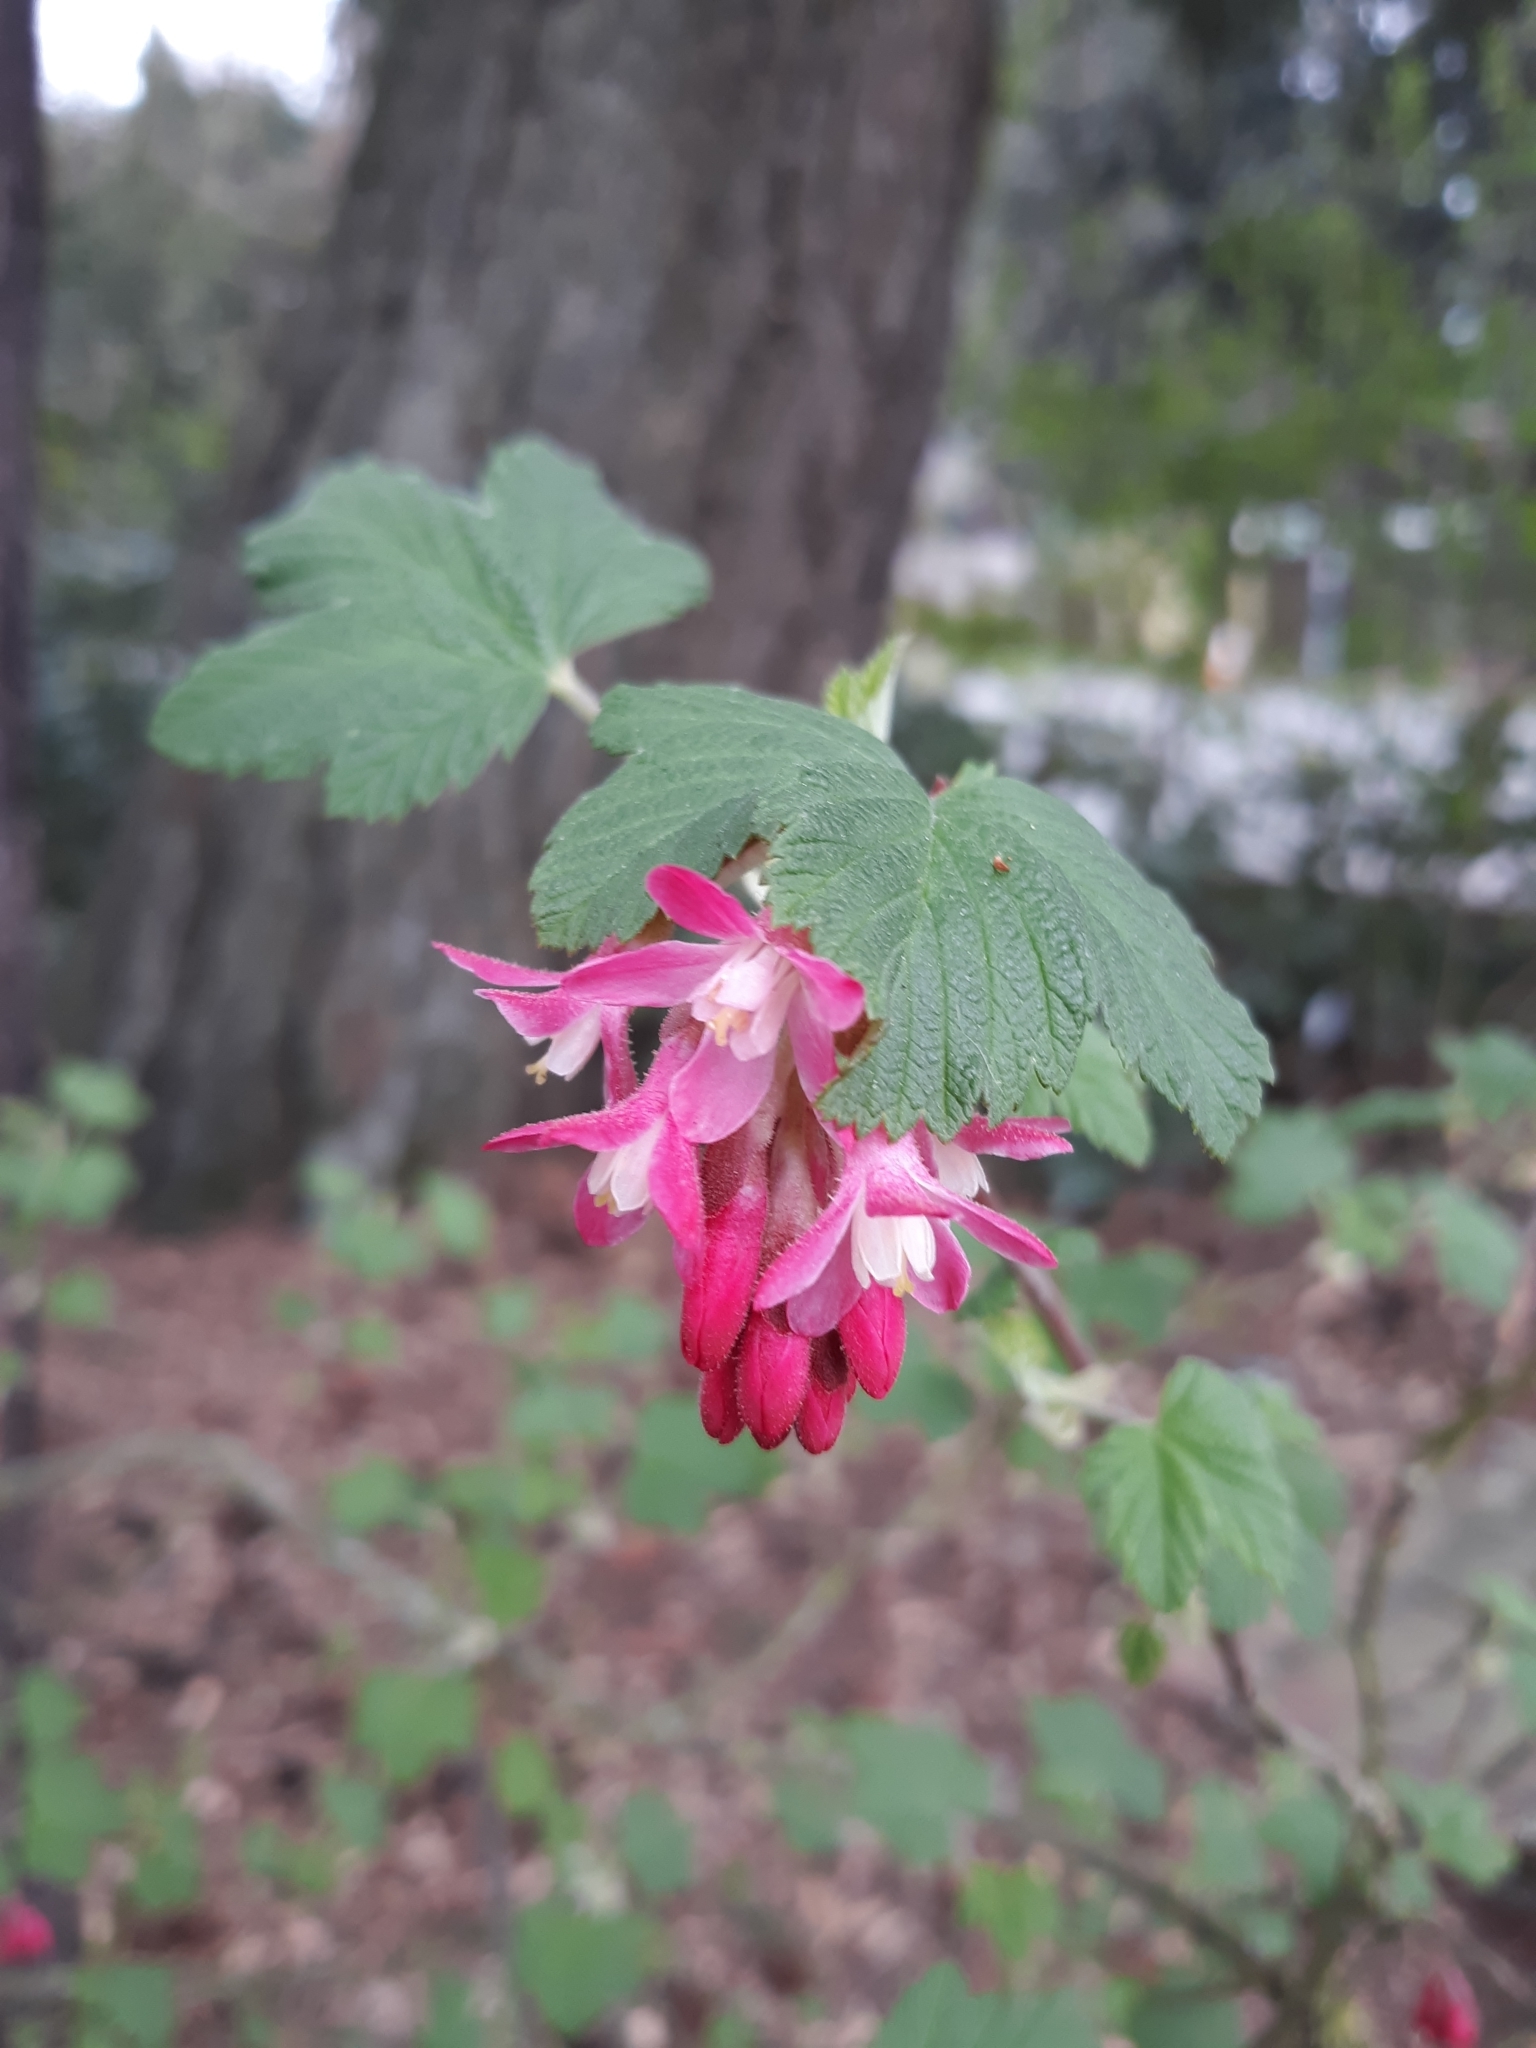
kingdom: Plantae
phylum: Tracheophyta
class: Magnoliopsida
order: Saxifragales
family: Grossulariaceae
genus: Ribes
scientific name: Ribes sanguineum
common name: Flowering currant
